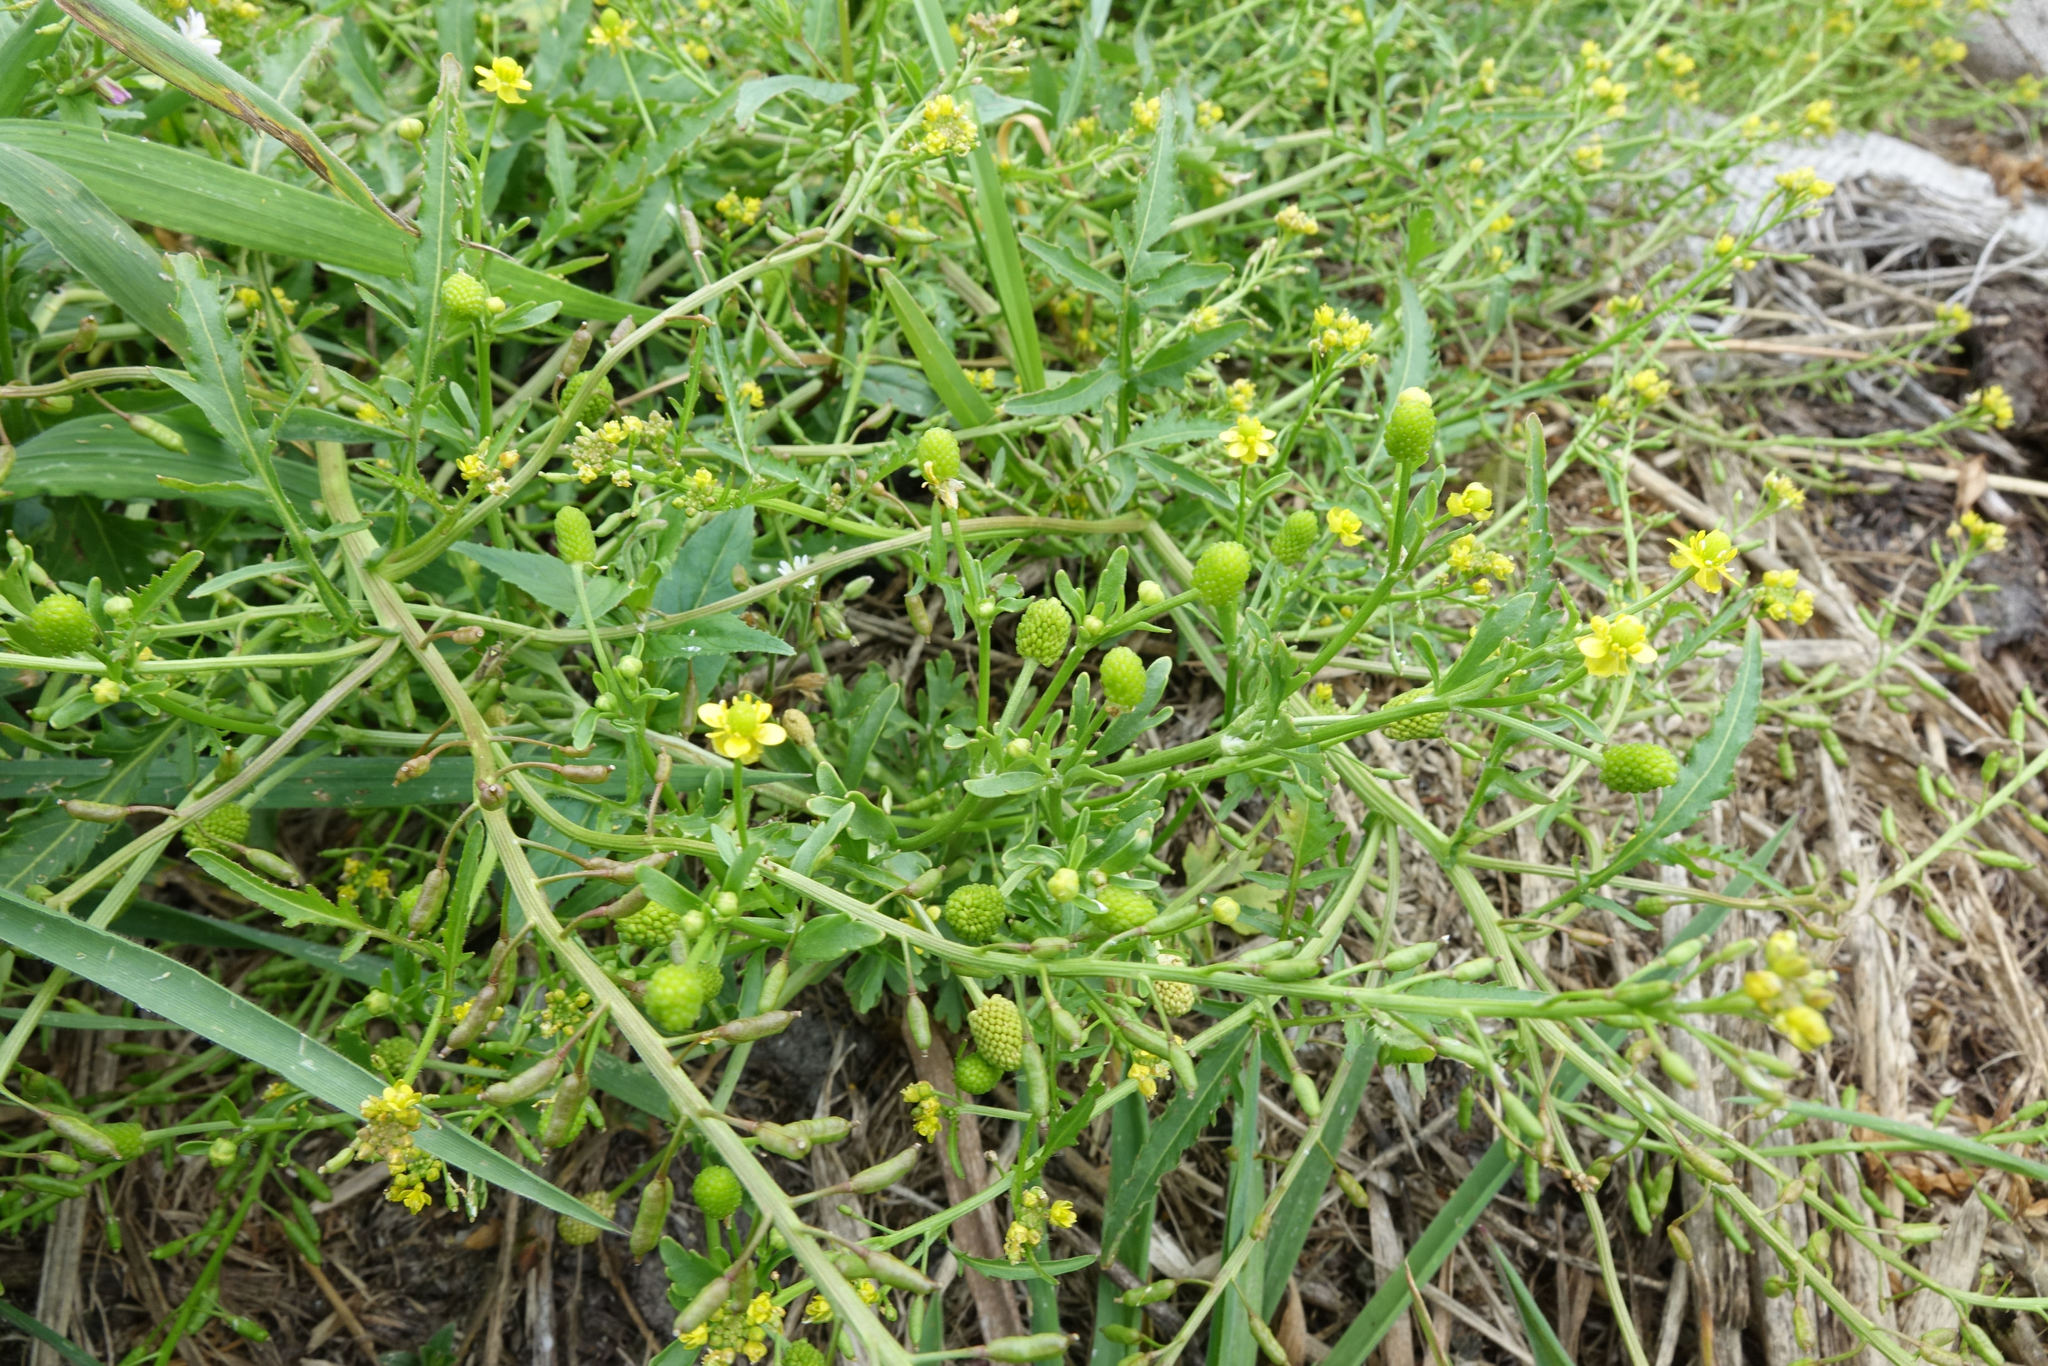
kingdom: Plantae
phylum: Tracheophyta
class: Magnoliopsida
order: Ranunculales
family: Ranunculaceae
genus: Ranunculus
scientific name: Ranunculus sceleratus
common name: Celery-leaved buttercup
